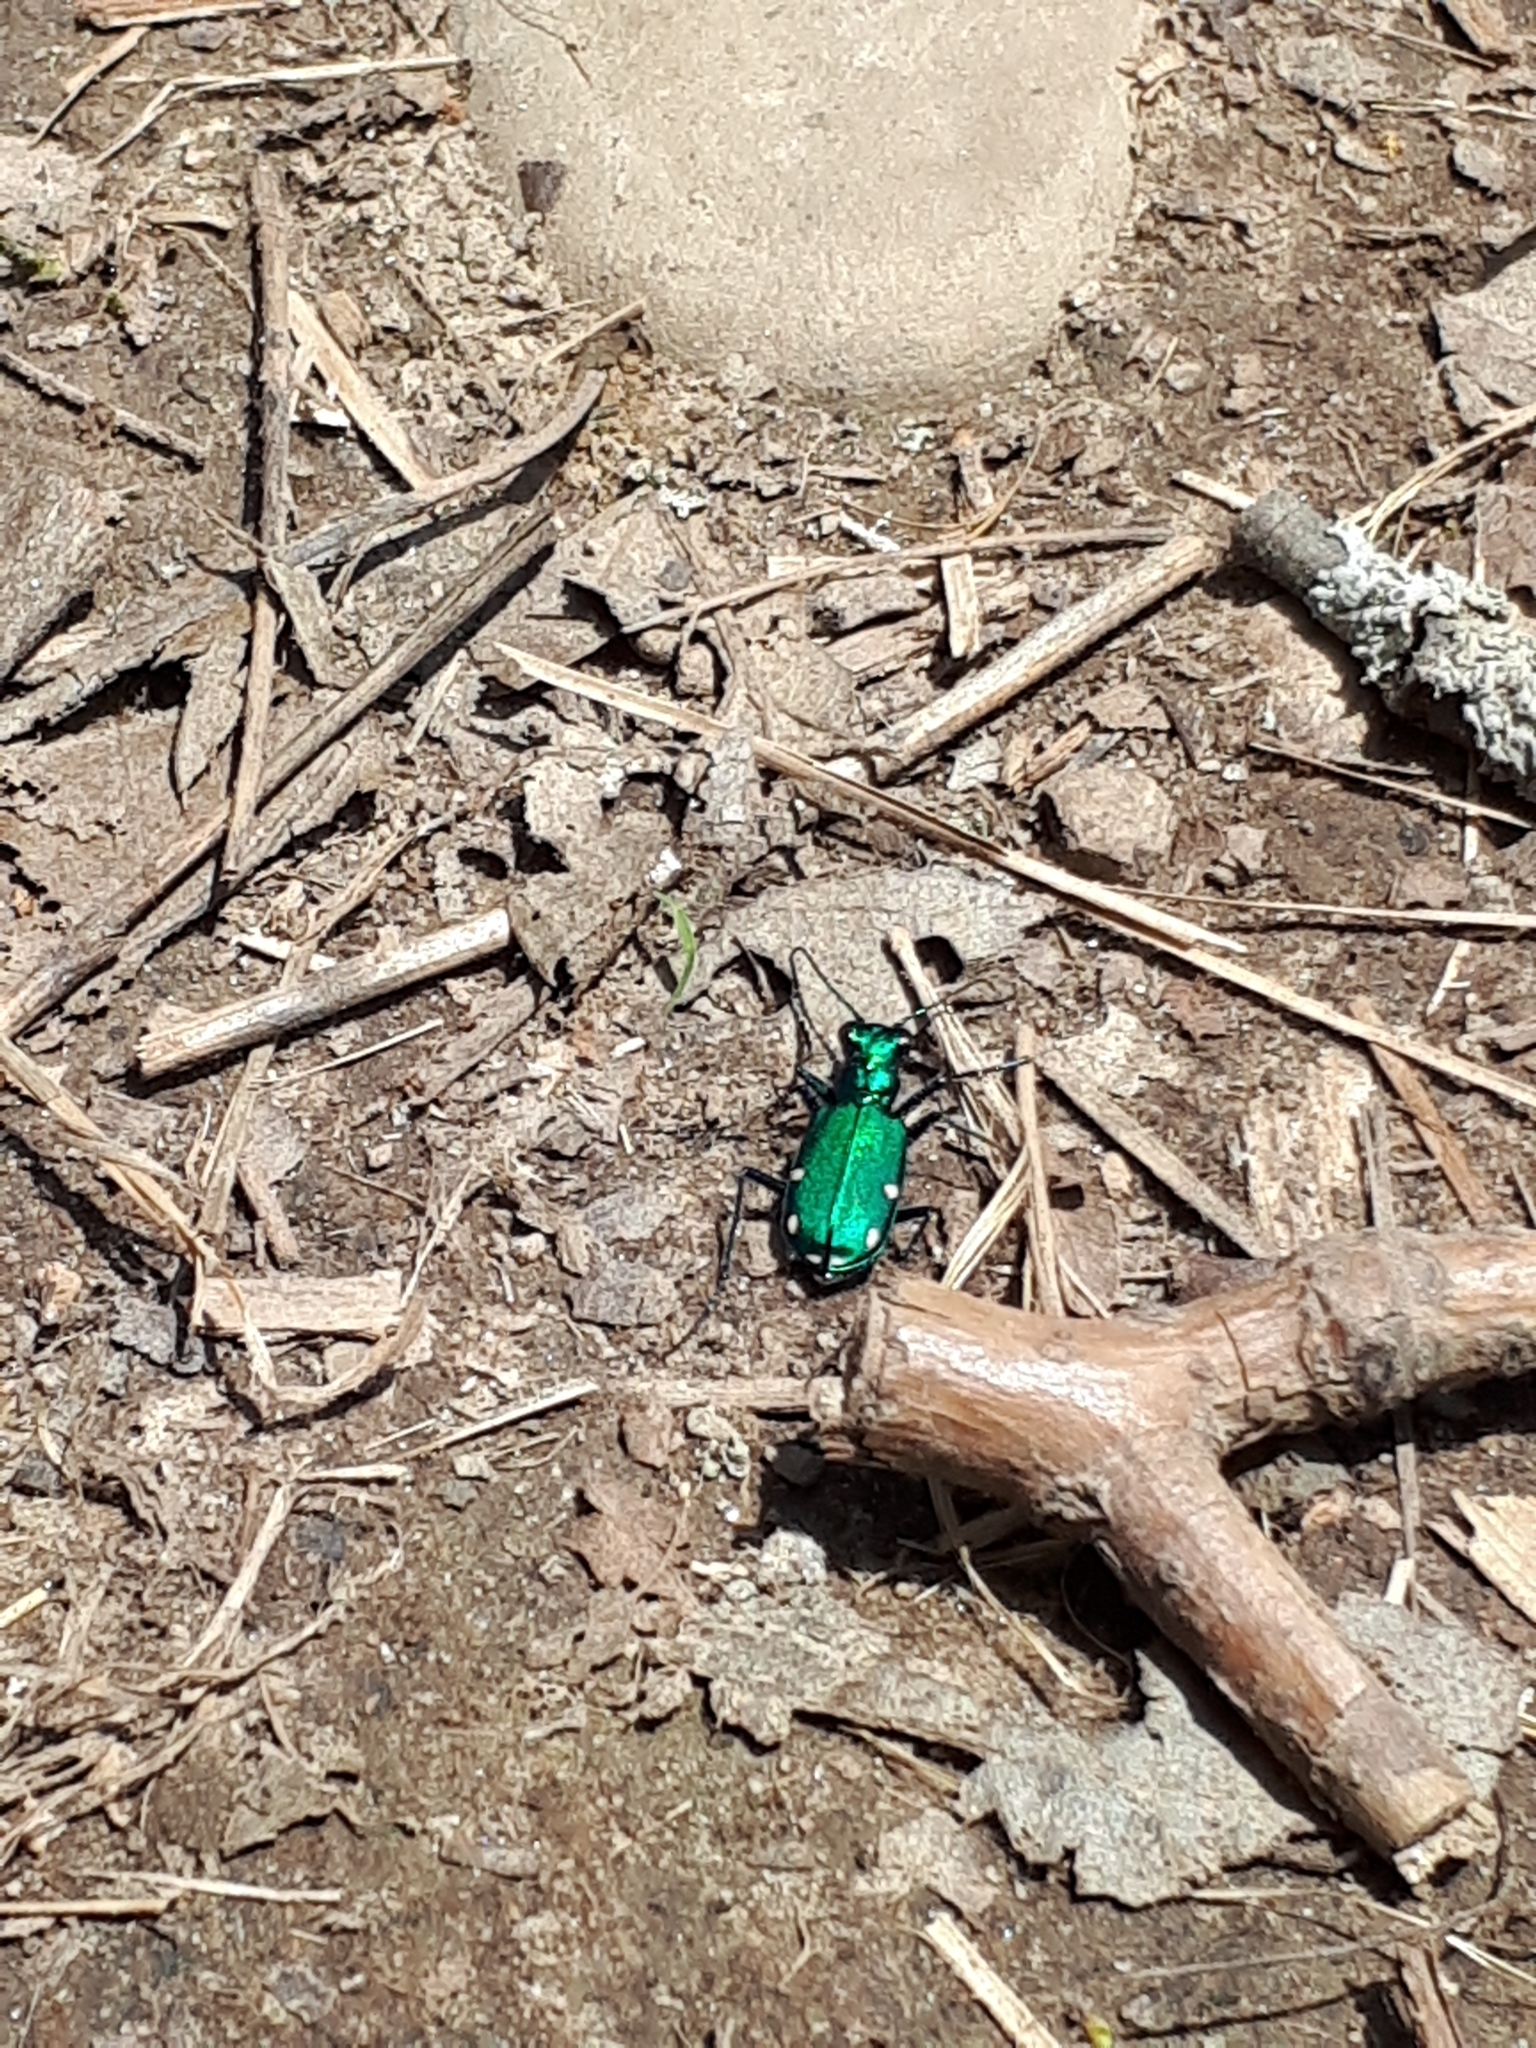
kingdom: Animalia
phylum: Arthropoda
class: Insecta
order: Coleoptera
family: Carabidae
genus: Cicindela
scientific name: Cicindela sexguttata
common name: Six-spotted tiger beetle
